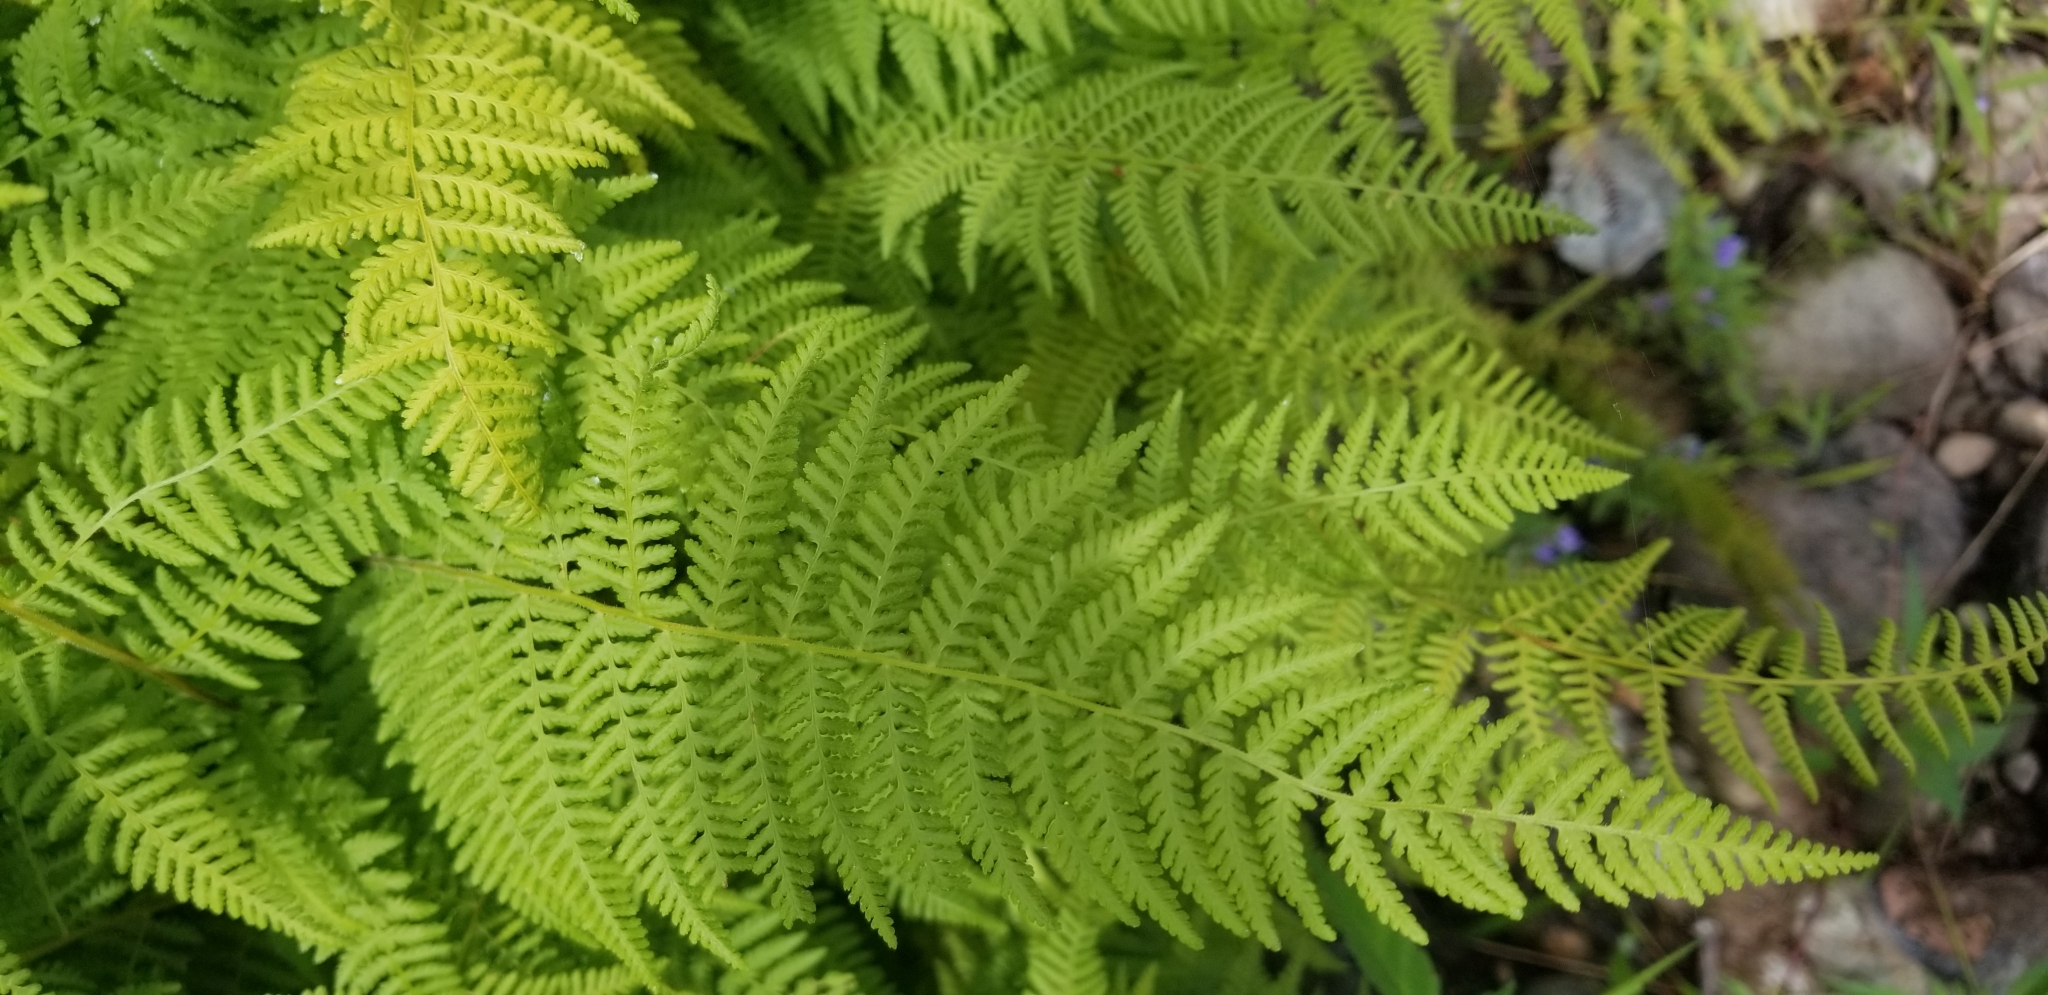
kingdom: Plantae
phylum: Tracheophyta
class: Polypodiopsida
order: Polypodiales
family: Dennstaedtiaceae
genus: Sitobolium
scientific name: Sitobolium punctilobum
